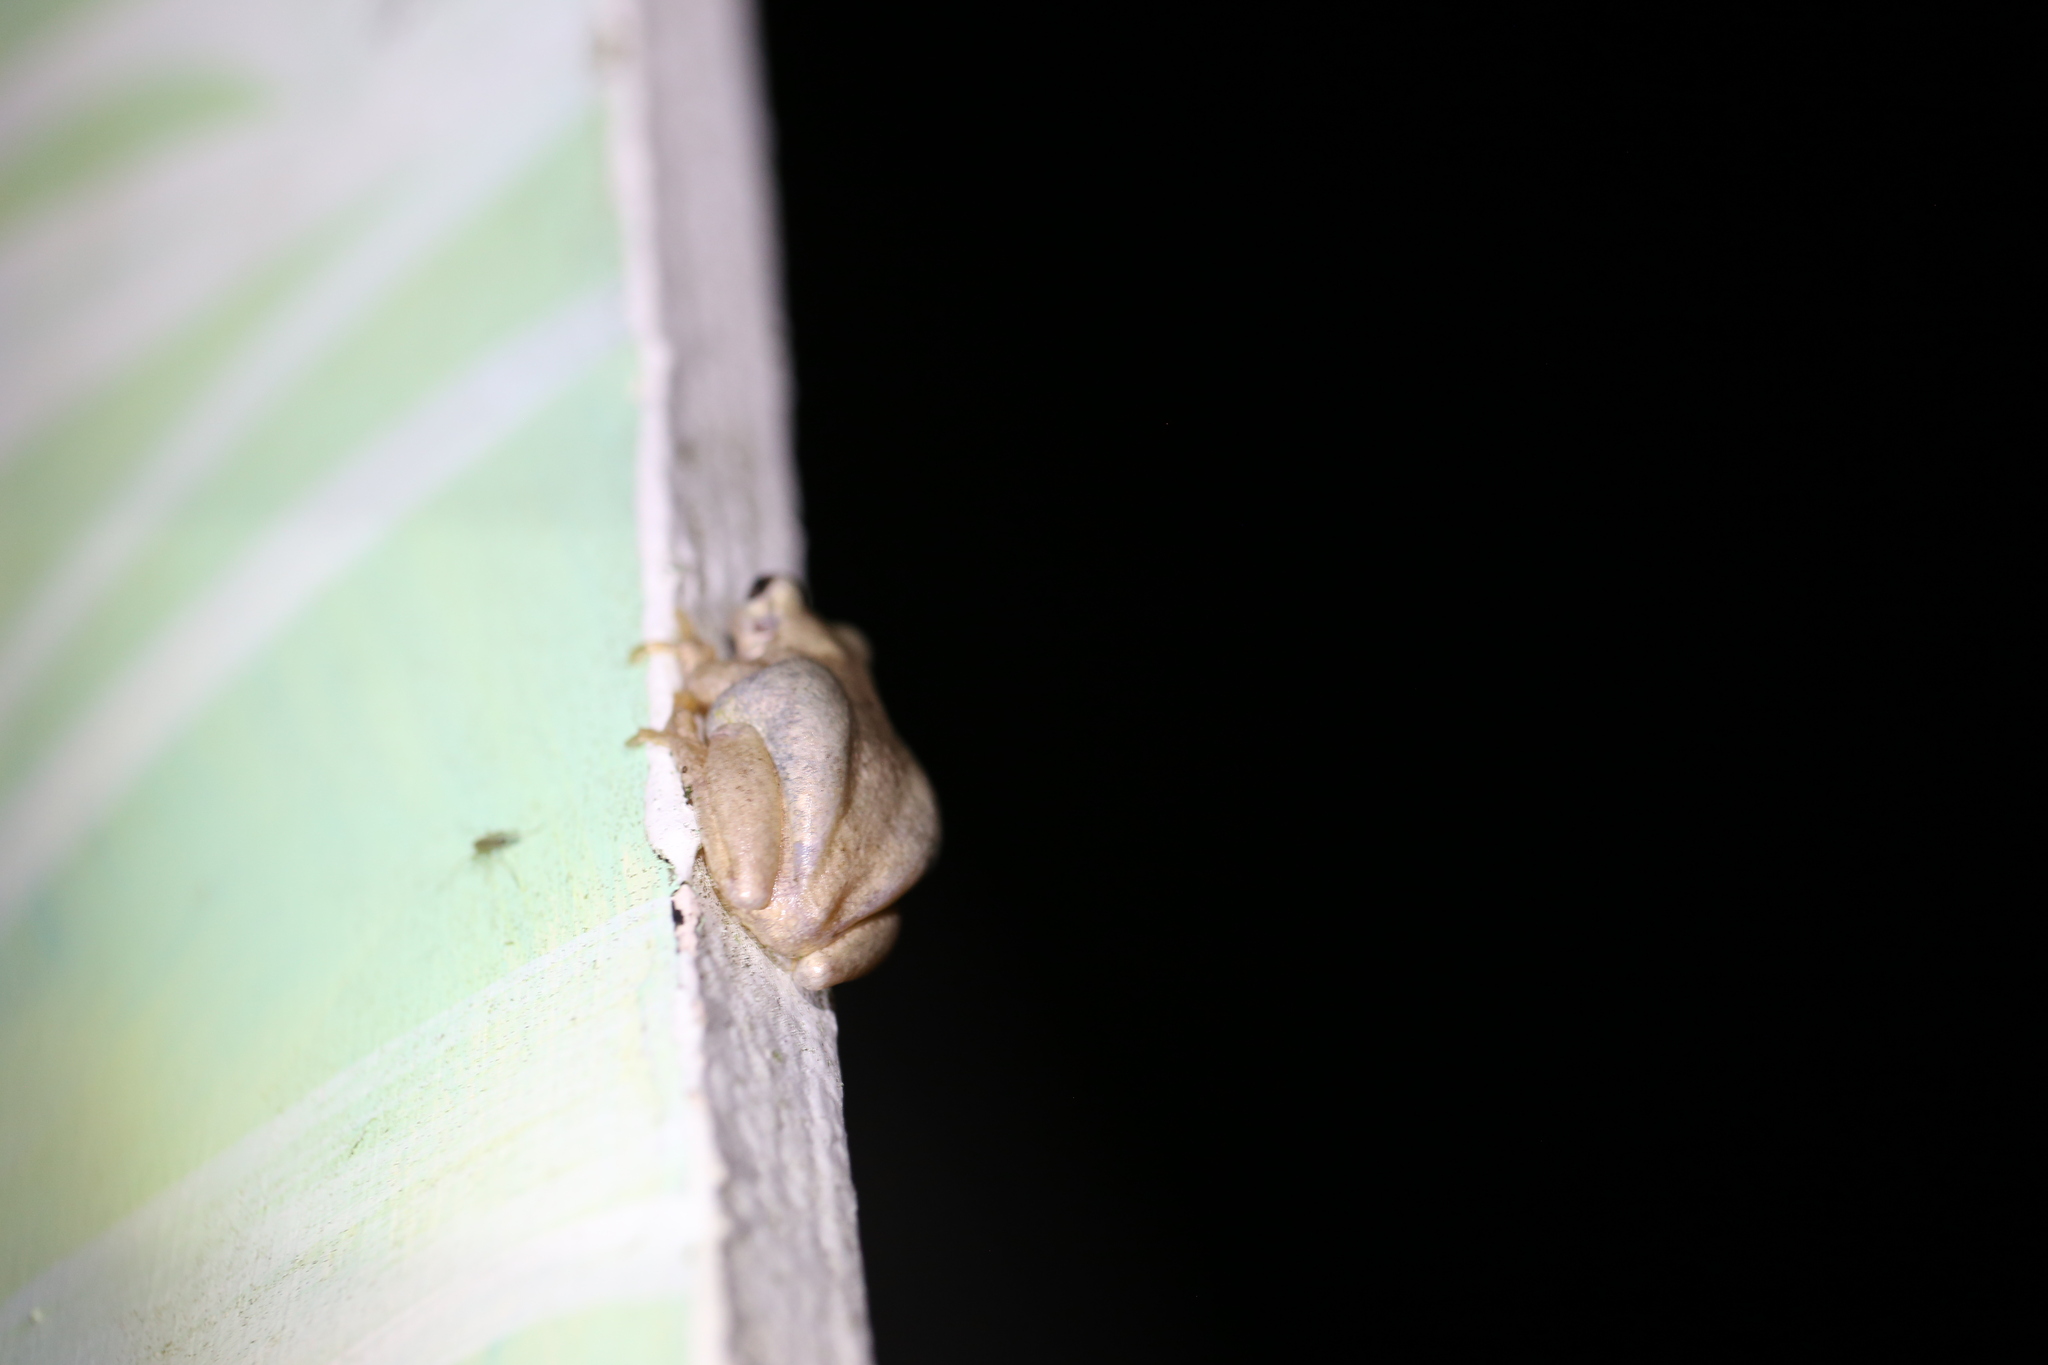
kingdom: Animalia
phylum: Chordata
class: Amphibia
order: Anura
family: Pelodryadidae
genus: Litoria
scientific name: Litoria rubella
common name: Desert tree frog
